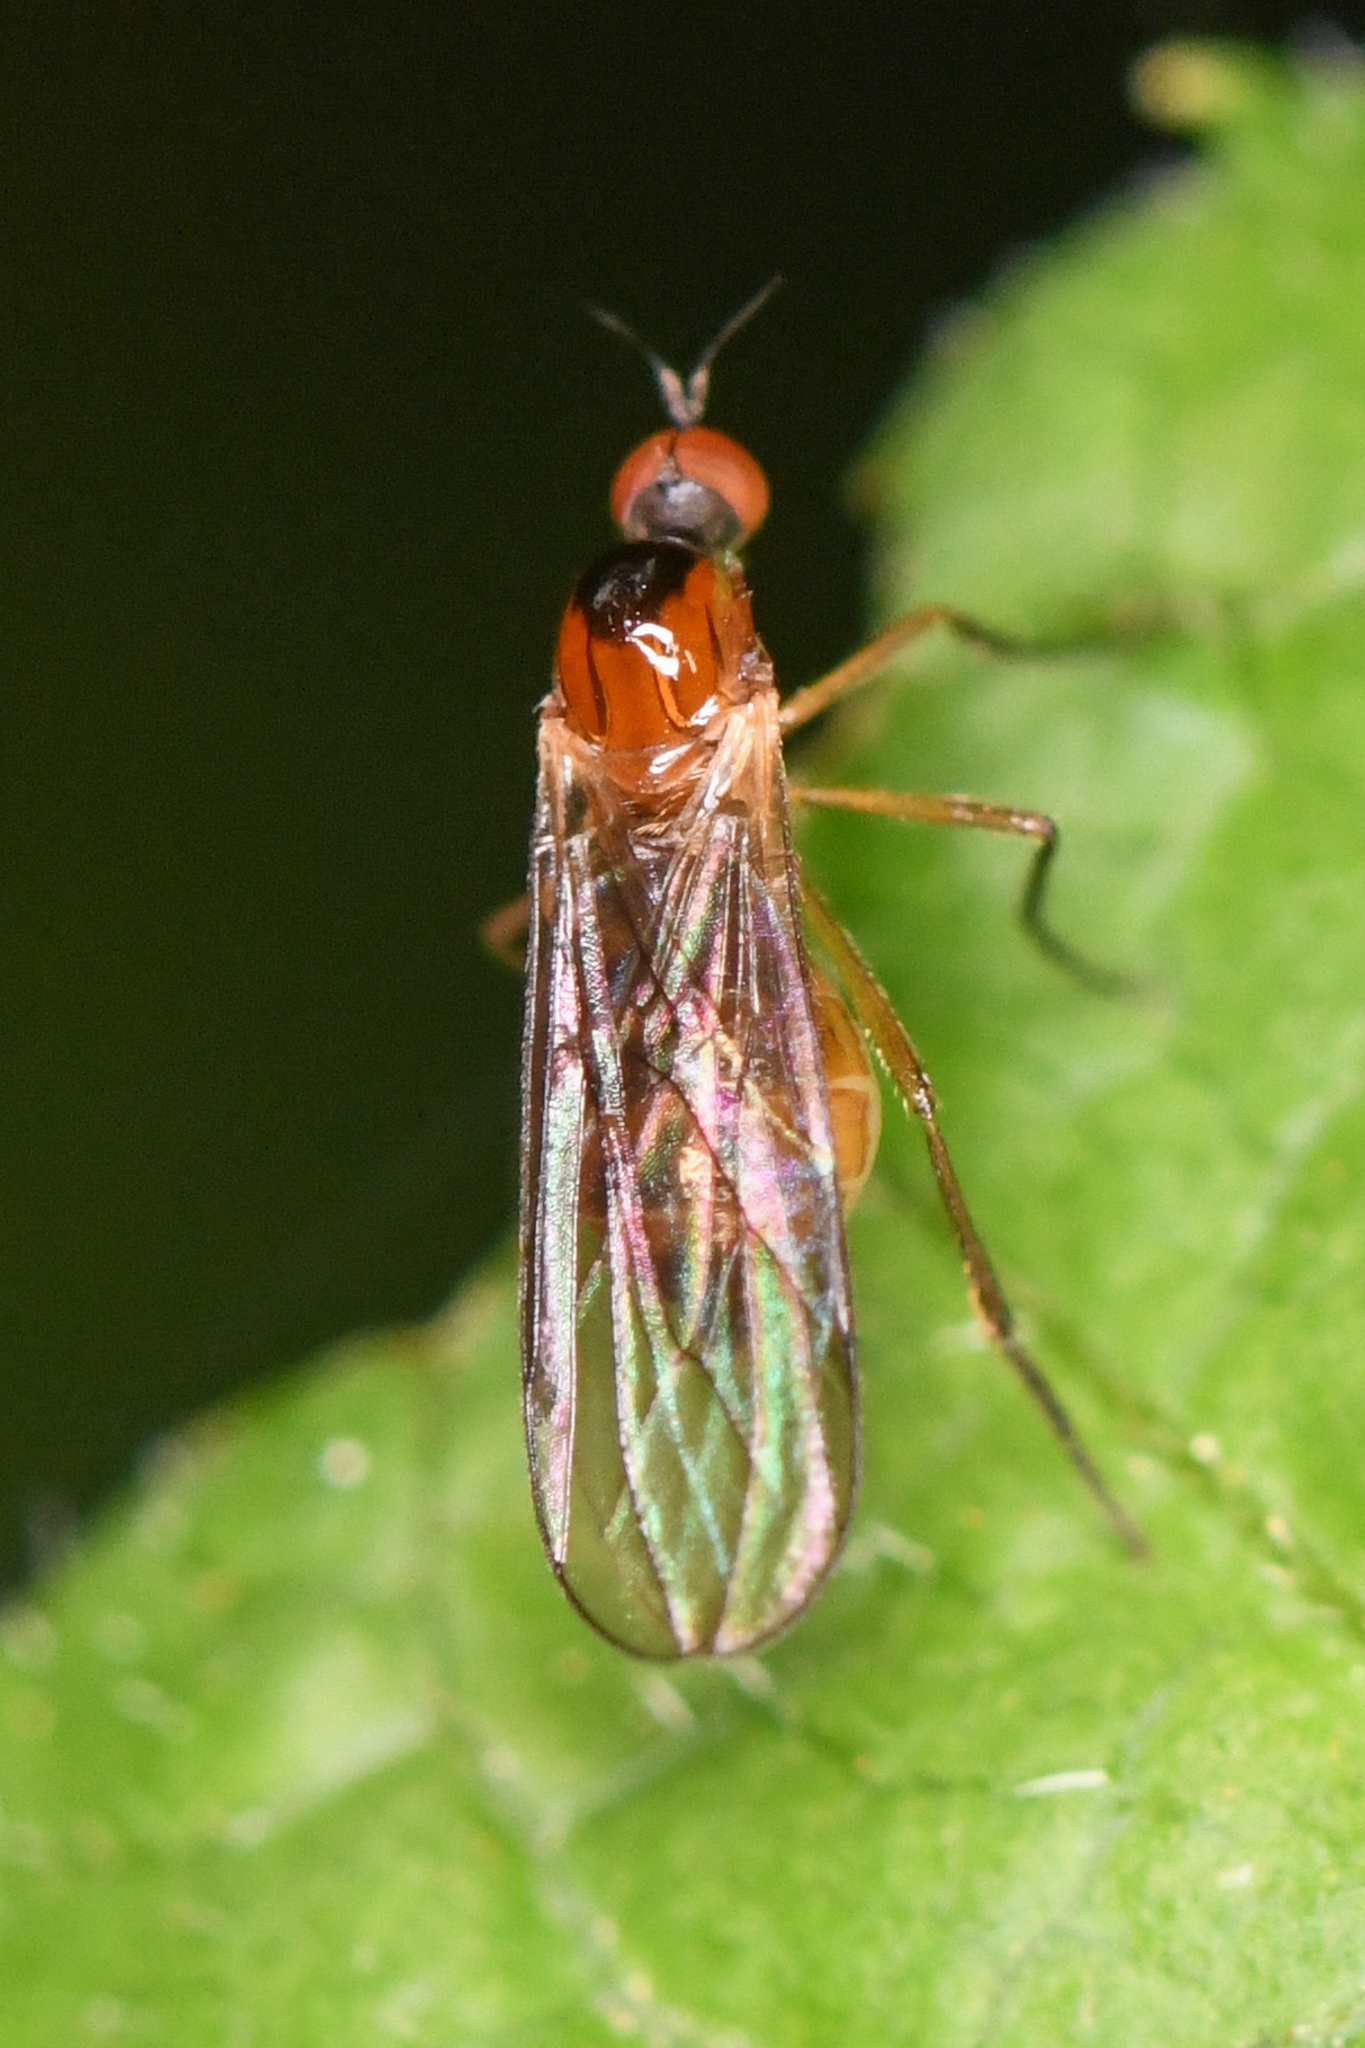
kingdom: Animalia
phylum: Arthropoda
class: Insecta
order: Diptera
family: Hybotidae
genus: Ocydromia
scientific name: Ocydromia glabricula
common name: Dance fly
